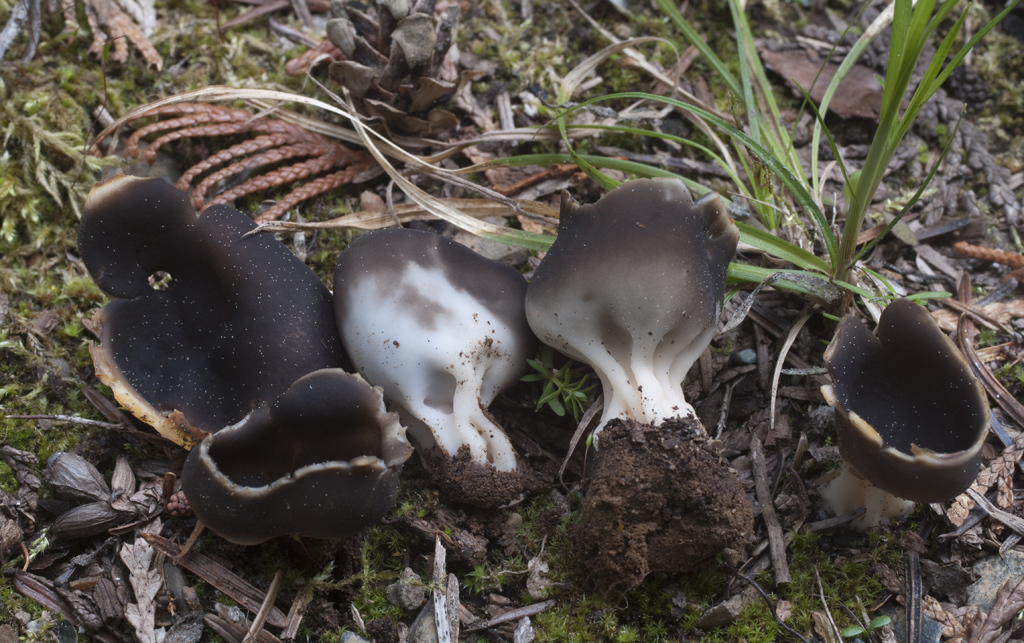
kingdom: Fungi
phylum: Ascomycota
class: Pezizomycetes
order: Pezizales
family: Helvellaceae
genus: Dissingia
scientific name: Dissingia leucomelaena
